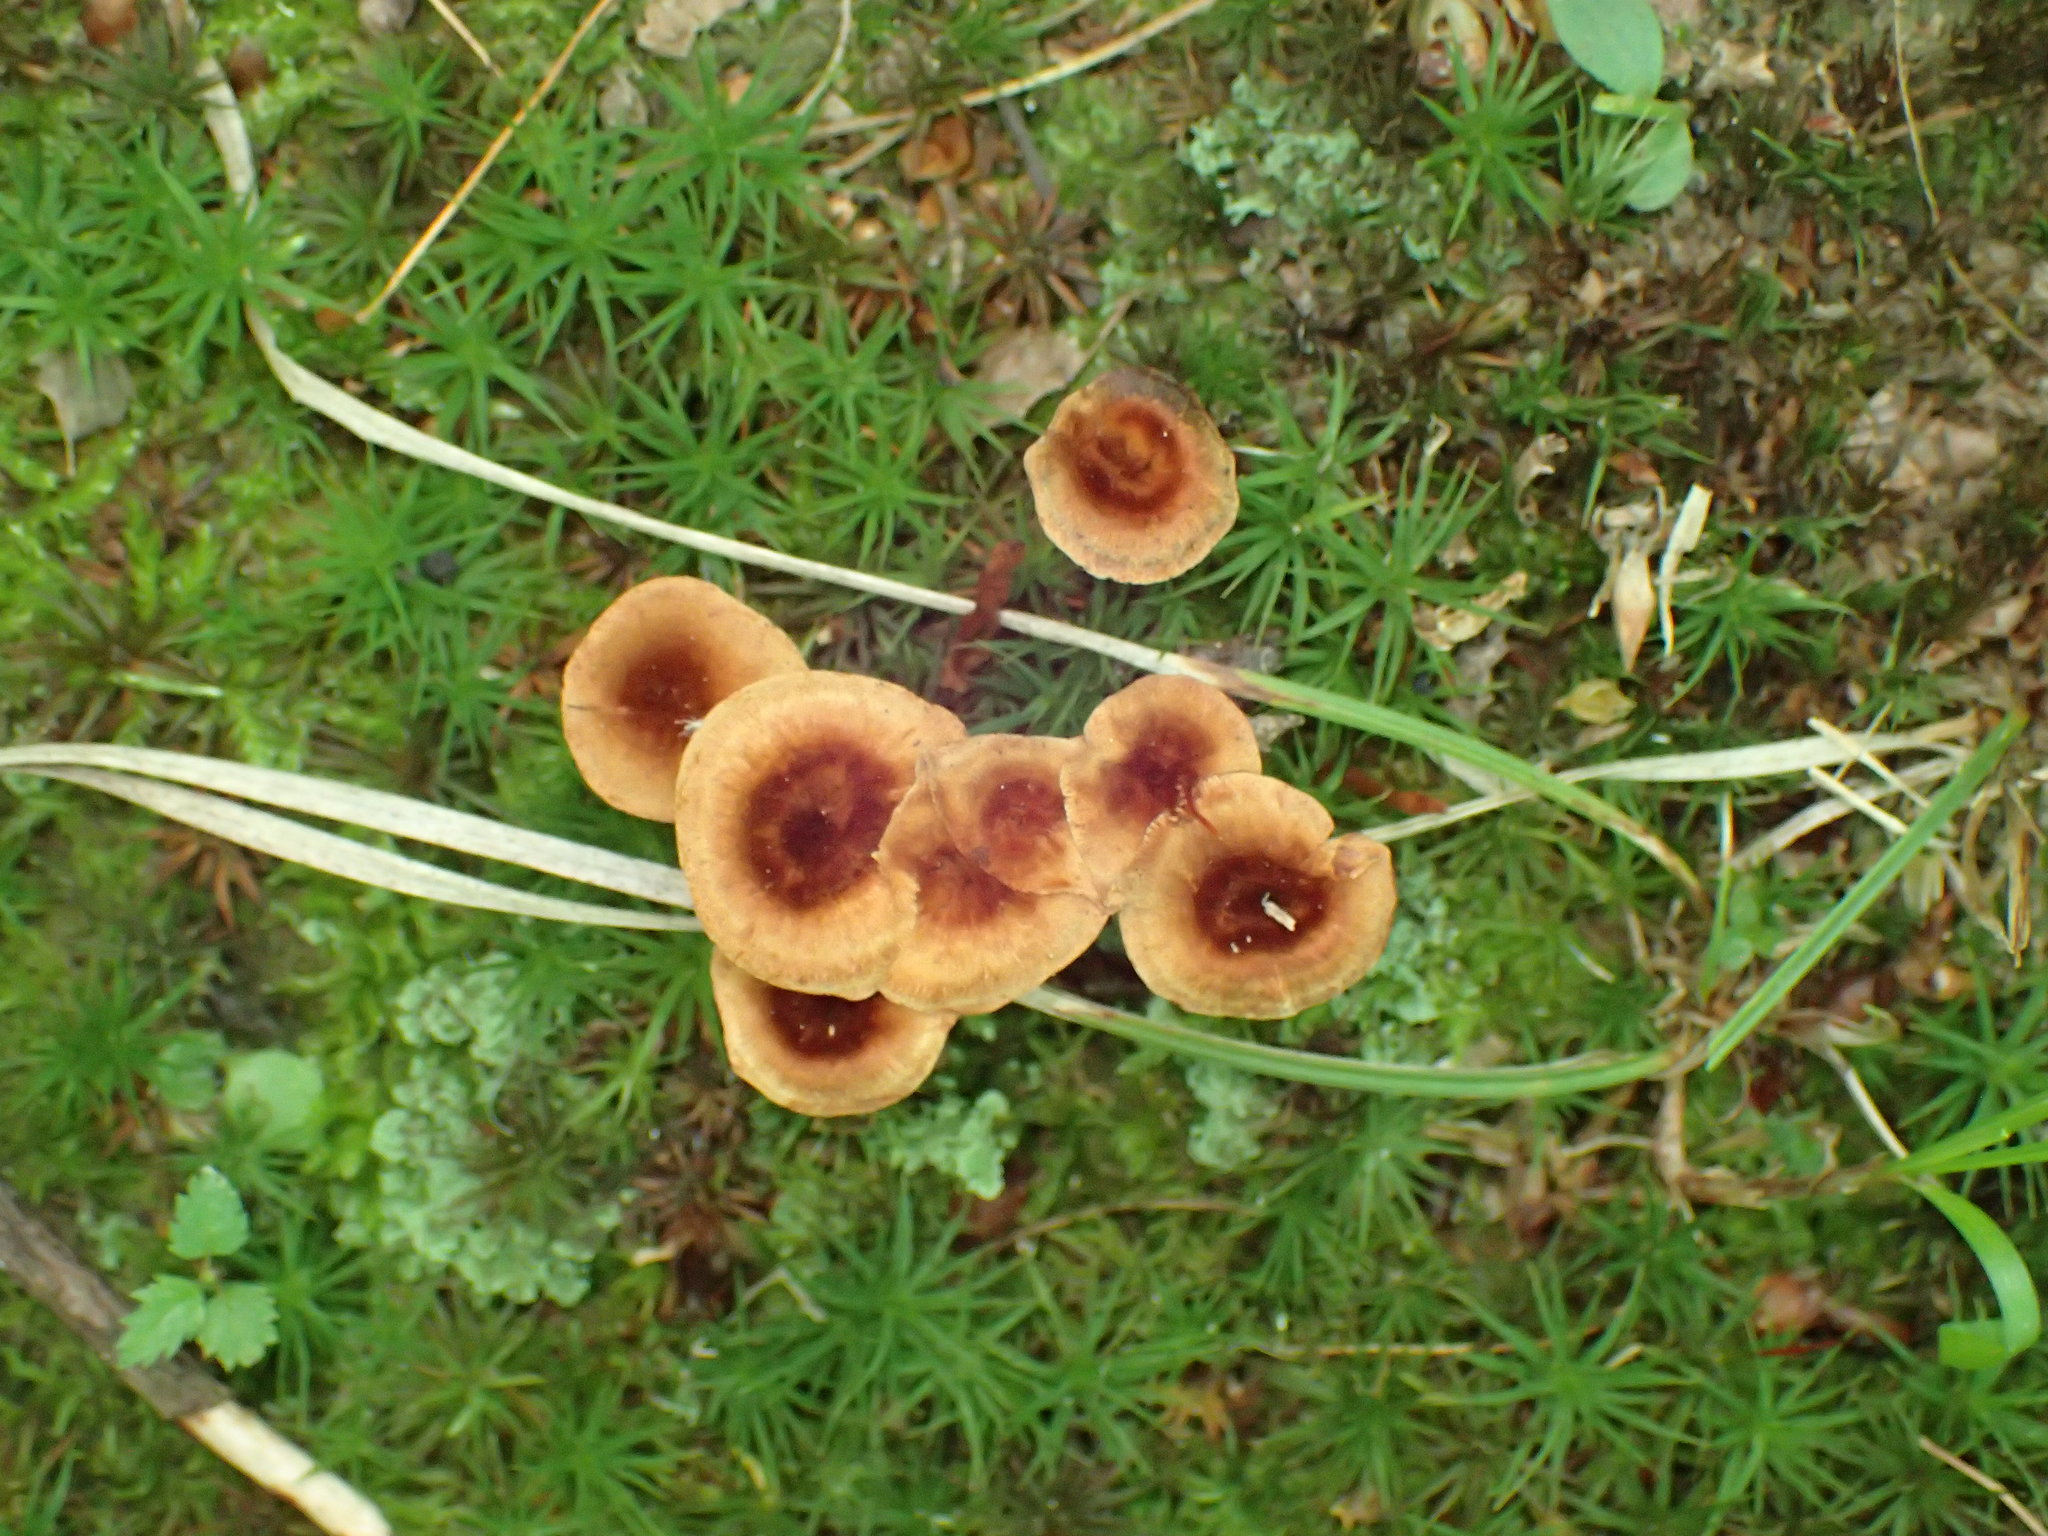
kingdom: Fungi
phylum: Basidiomycota
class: Agaricomycetes
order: Hymenochaetales
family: Hymenochaetaceae
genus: Coltricia
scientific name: Coltricia cinnamomea
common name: Shiny cinnamon polypore
